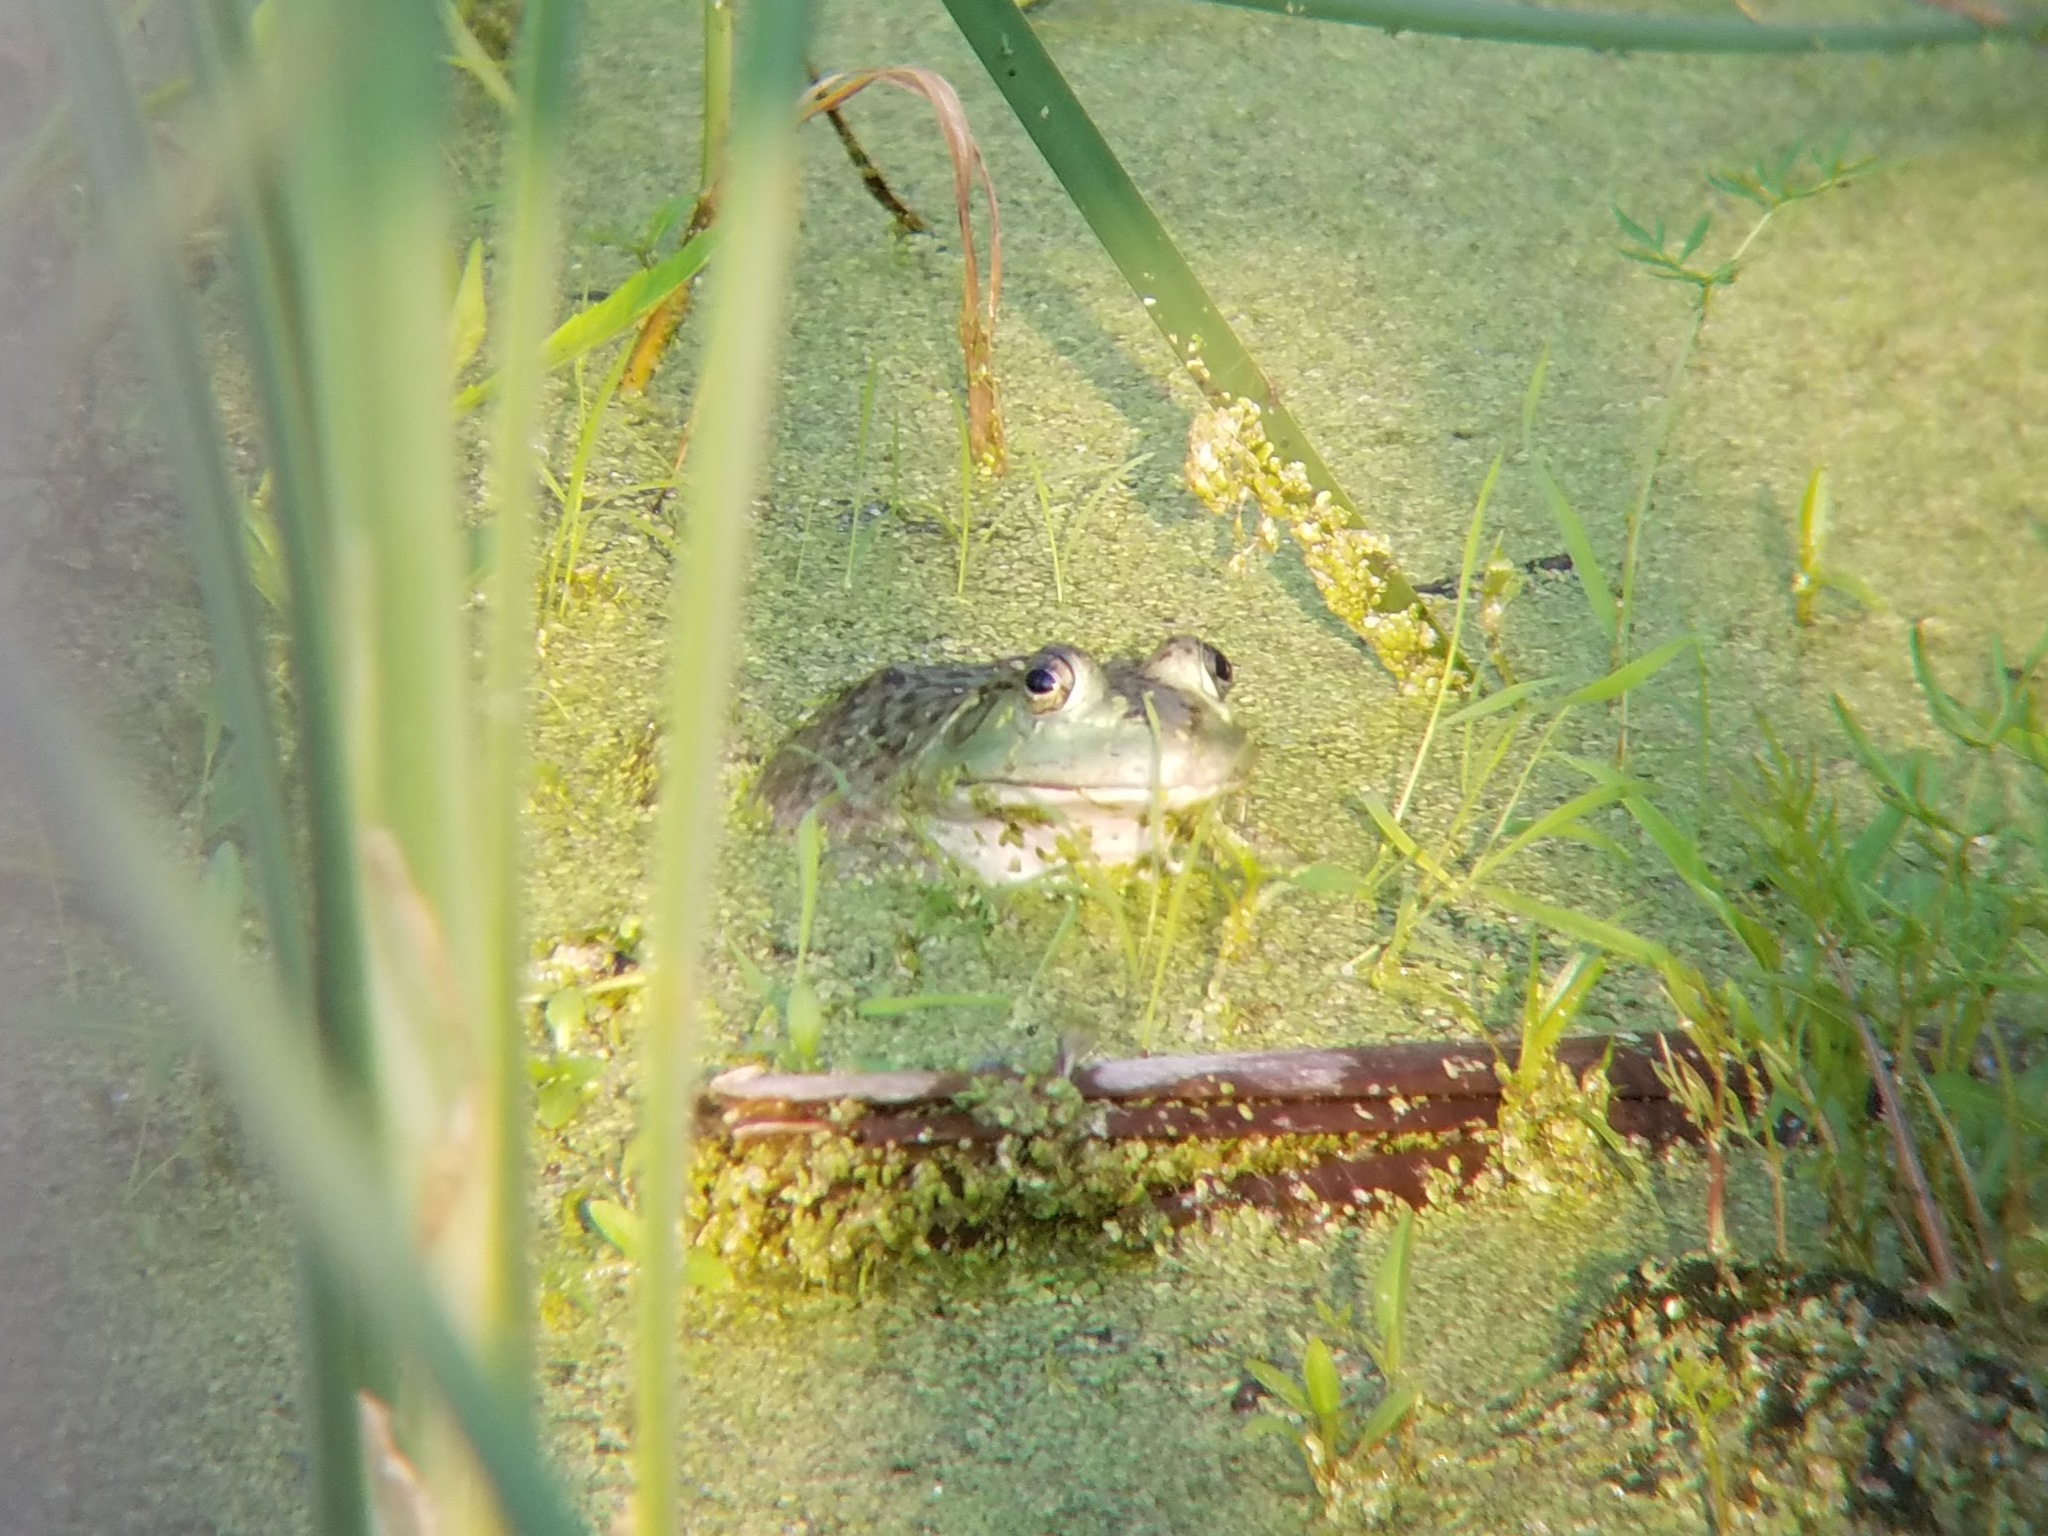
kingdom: Animalia
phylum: Chordata
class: Amphibia
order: Anura
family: Ranidae
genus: Lithobates
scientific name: Lithobates catesbeianus
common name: American bullfrog
